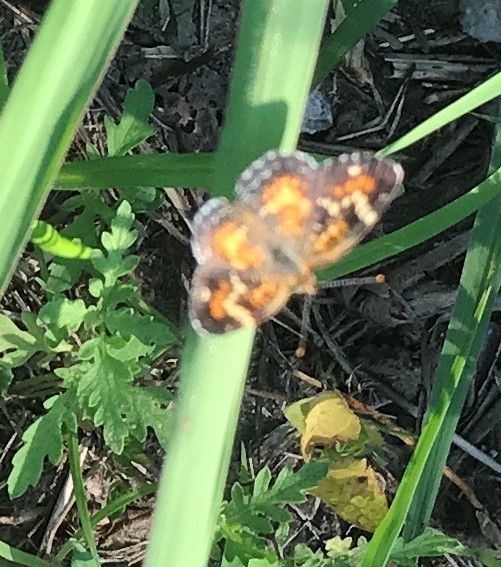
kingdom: Animalia
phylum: Arthropoda
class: Insecta
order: Lepidoptera
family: Nymphalidae
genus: Phyciodes
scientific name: Phyciodes phaon
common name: Phaon crescent
